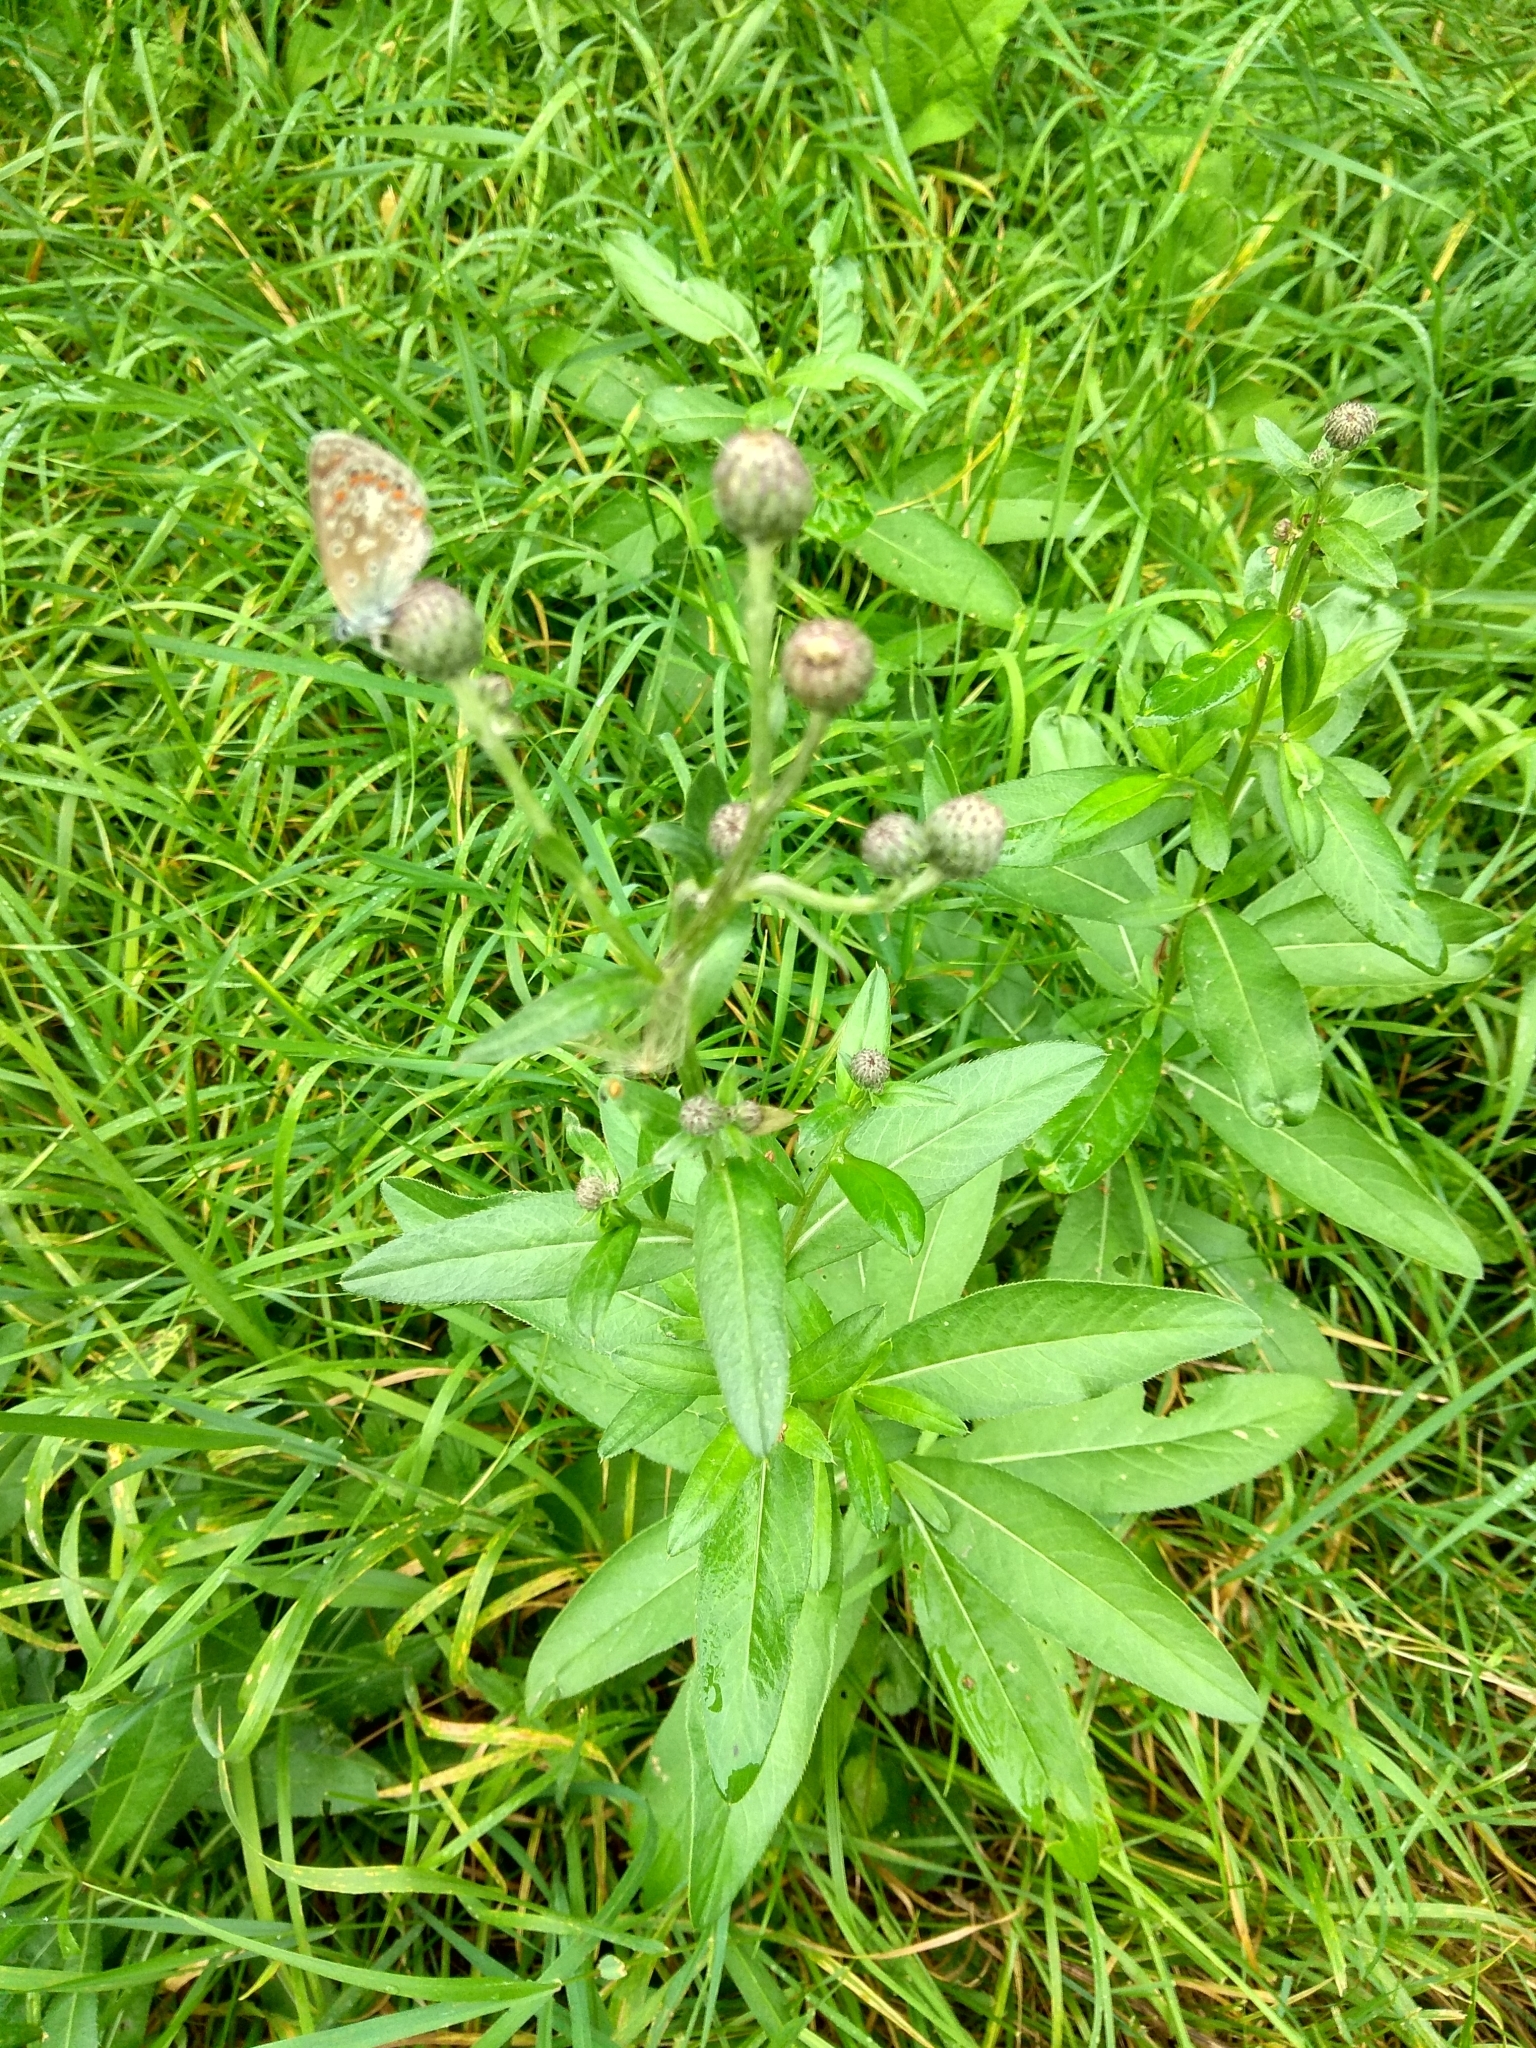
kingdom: Plantae
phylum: Tracheophyta
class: Magnoliopsida
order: Asterales
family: Asteraceae
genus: Cirsium
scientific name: Cirsium arvense
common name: Creeping thistle
